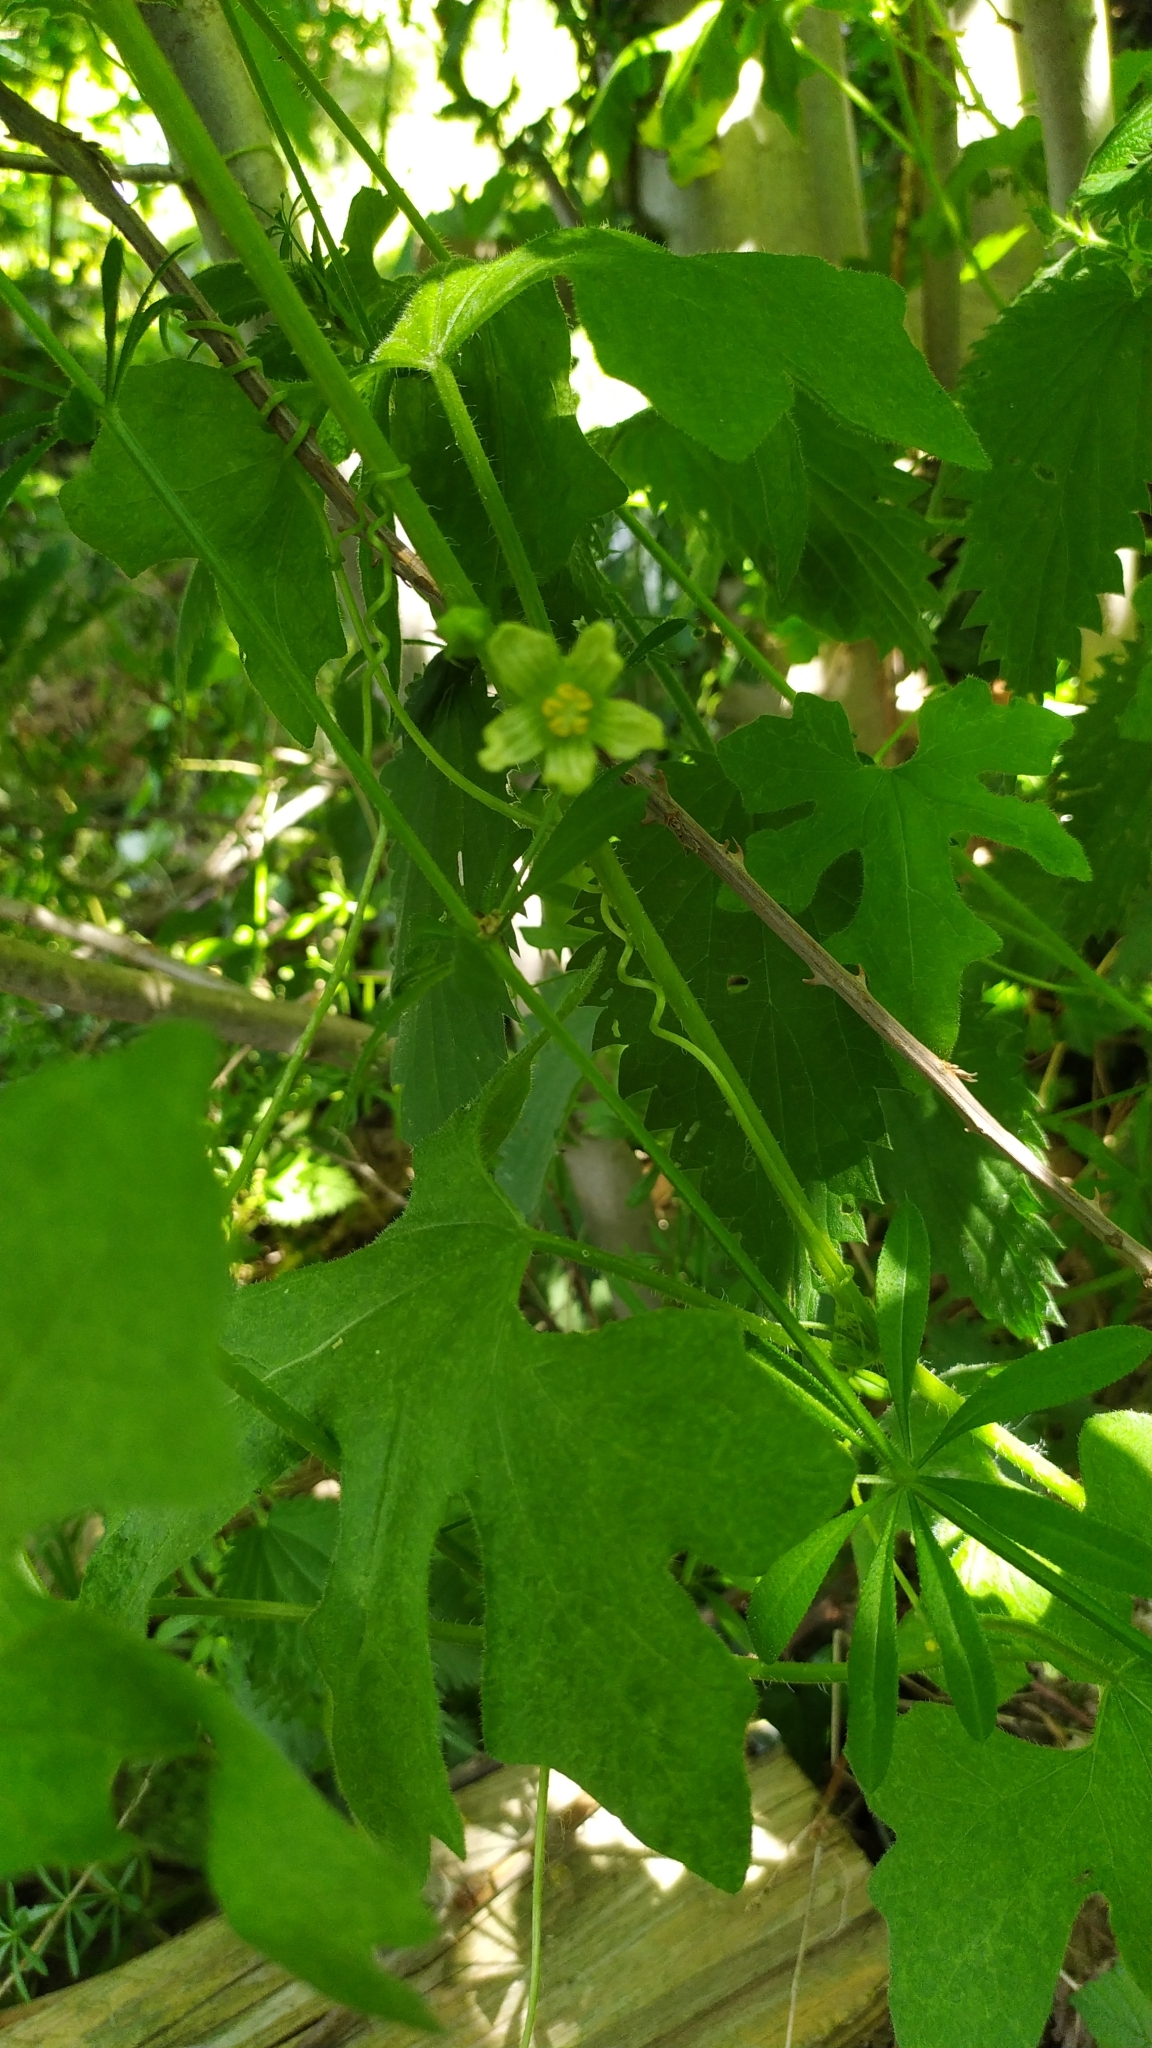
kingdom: Plantae
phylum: Tracheophyta
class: Magnoliopsida
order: Cucurbitales
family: Cucurbitaceae
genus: Bryonia
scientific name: Bryonia cretica
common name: Cretan bryony
